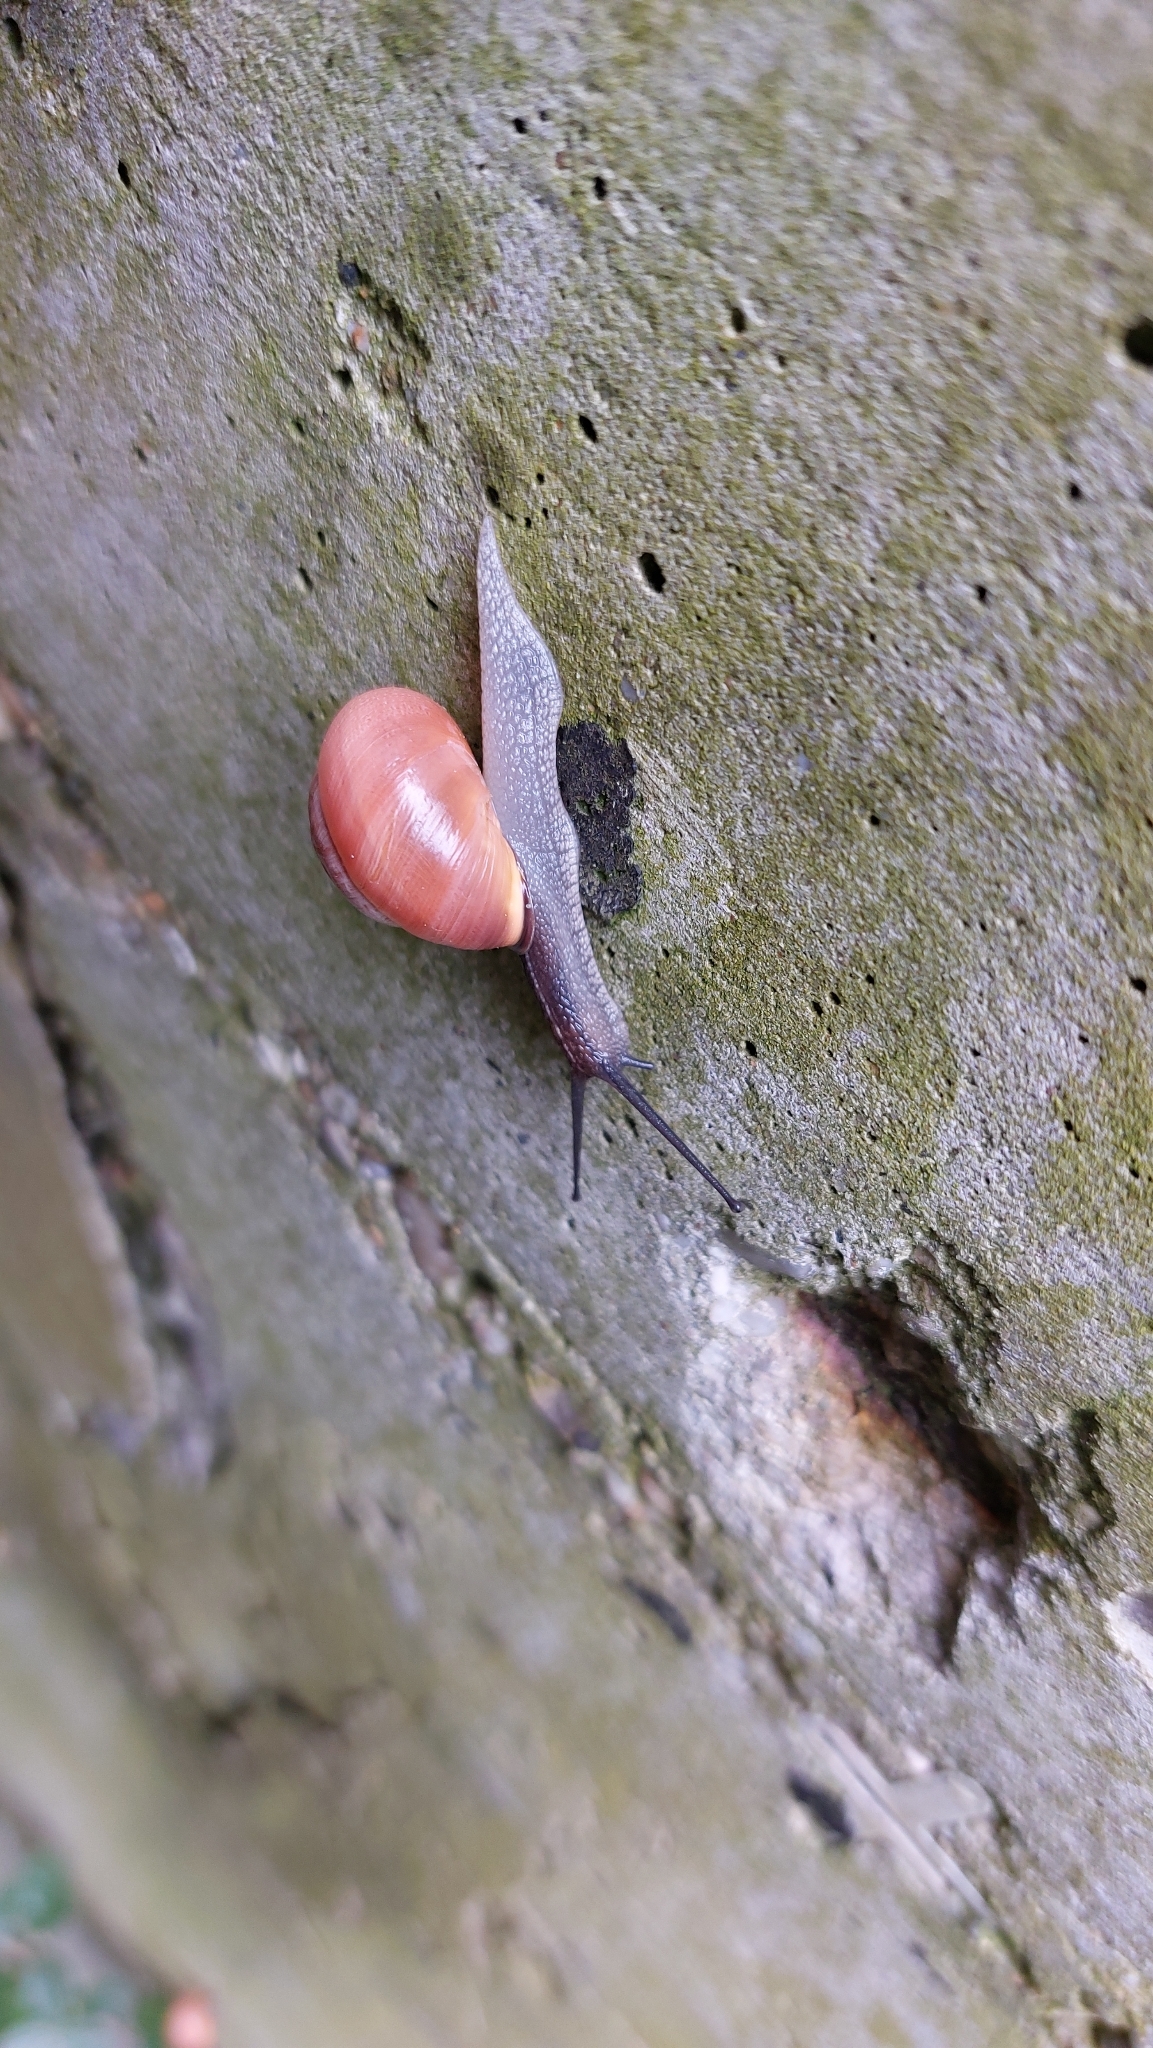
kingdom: Animalia
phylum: Mollusca
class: Gastropoda
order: Stylommatophora
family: Helicidae
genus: Cepaea
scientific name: Cepaea nemoralis
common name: Grovesnail
